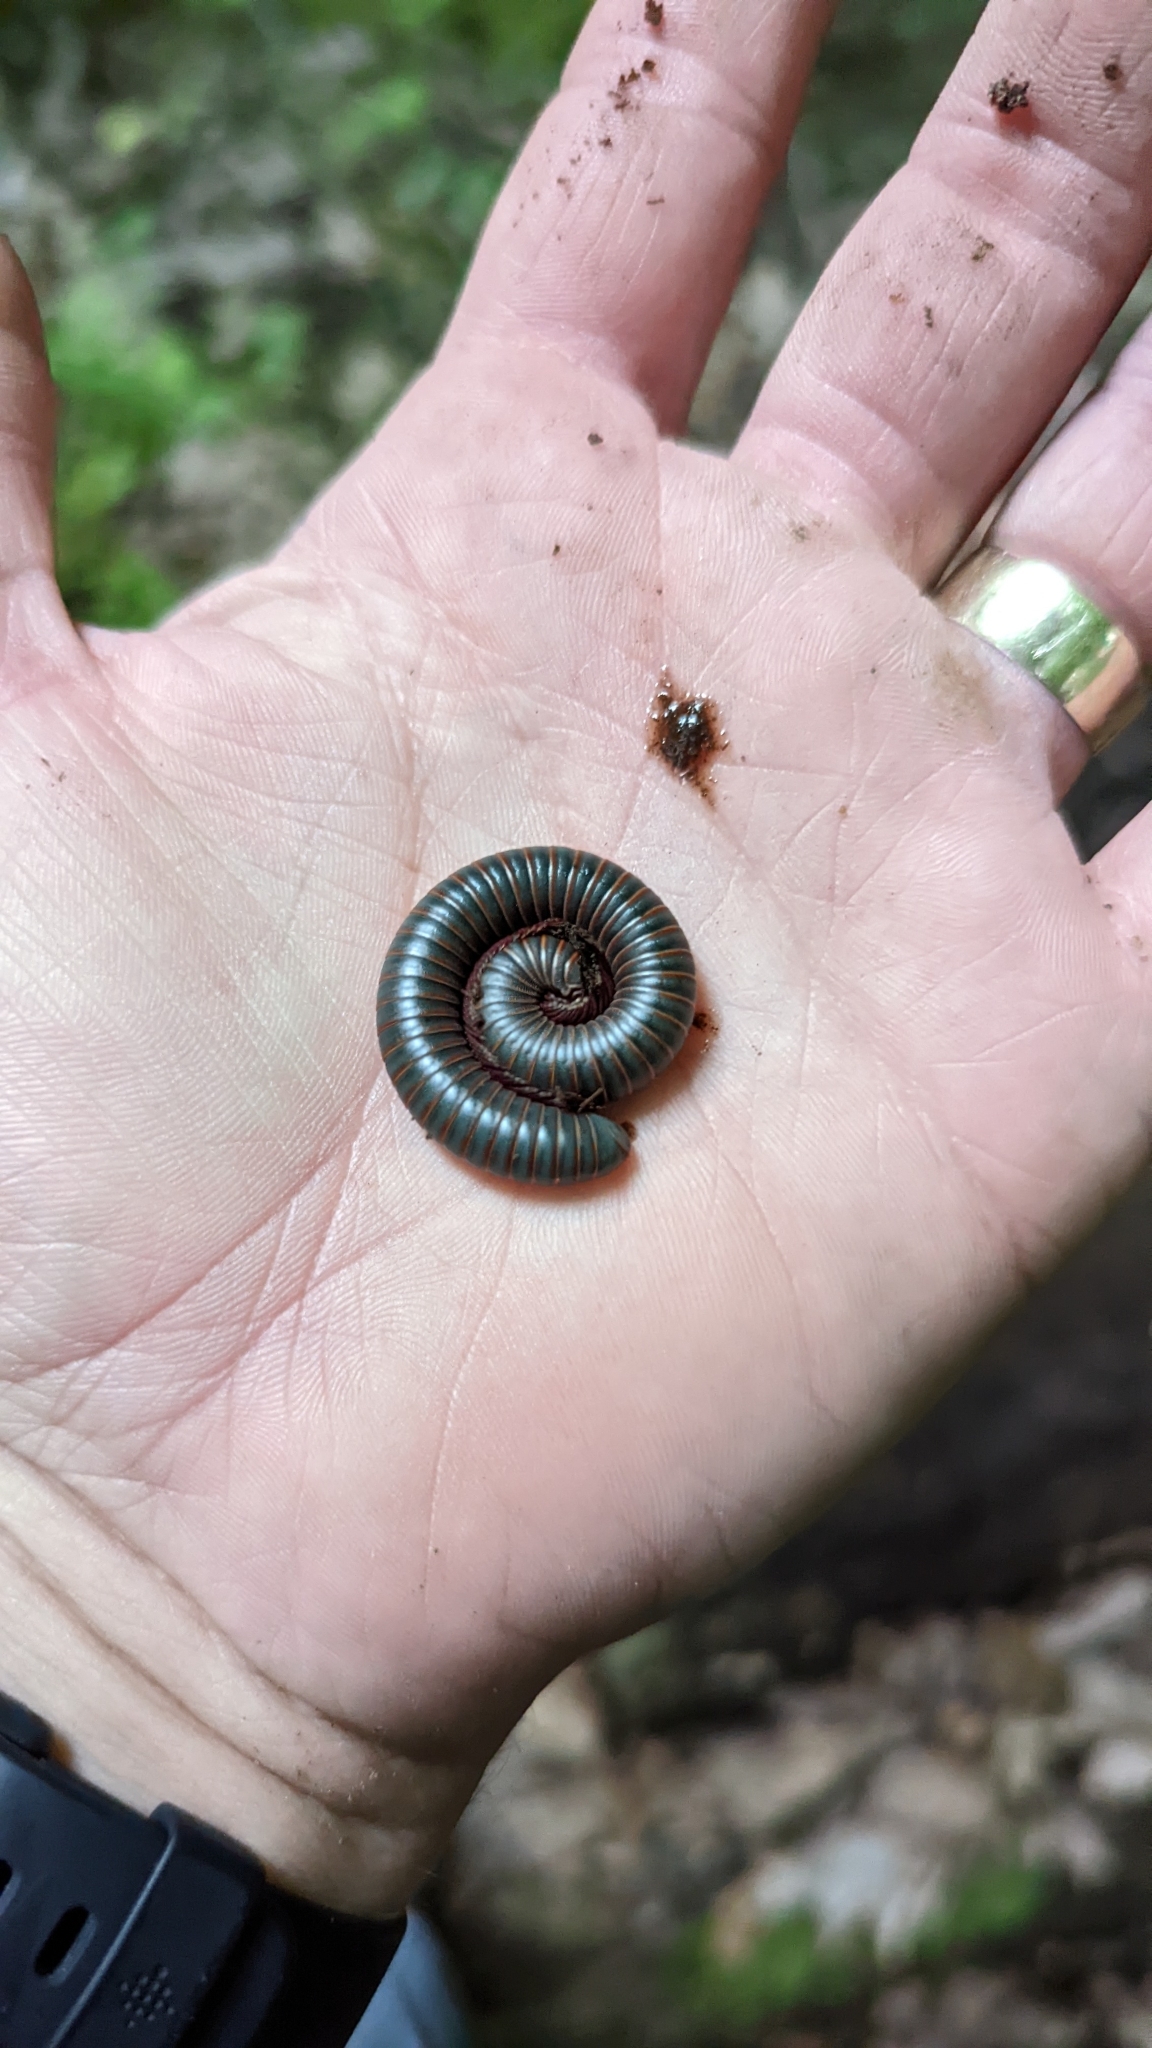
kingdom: Animalia
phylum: Arthropoda
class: Diplopoda
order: Spirobolida
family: Spirobolidae
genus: Narceus
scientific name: Narceus
